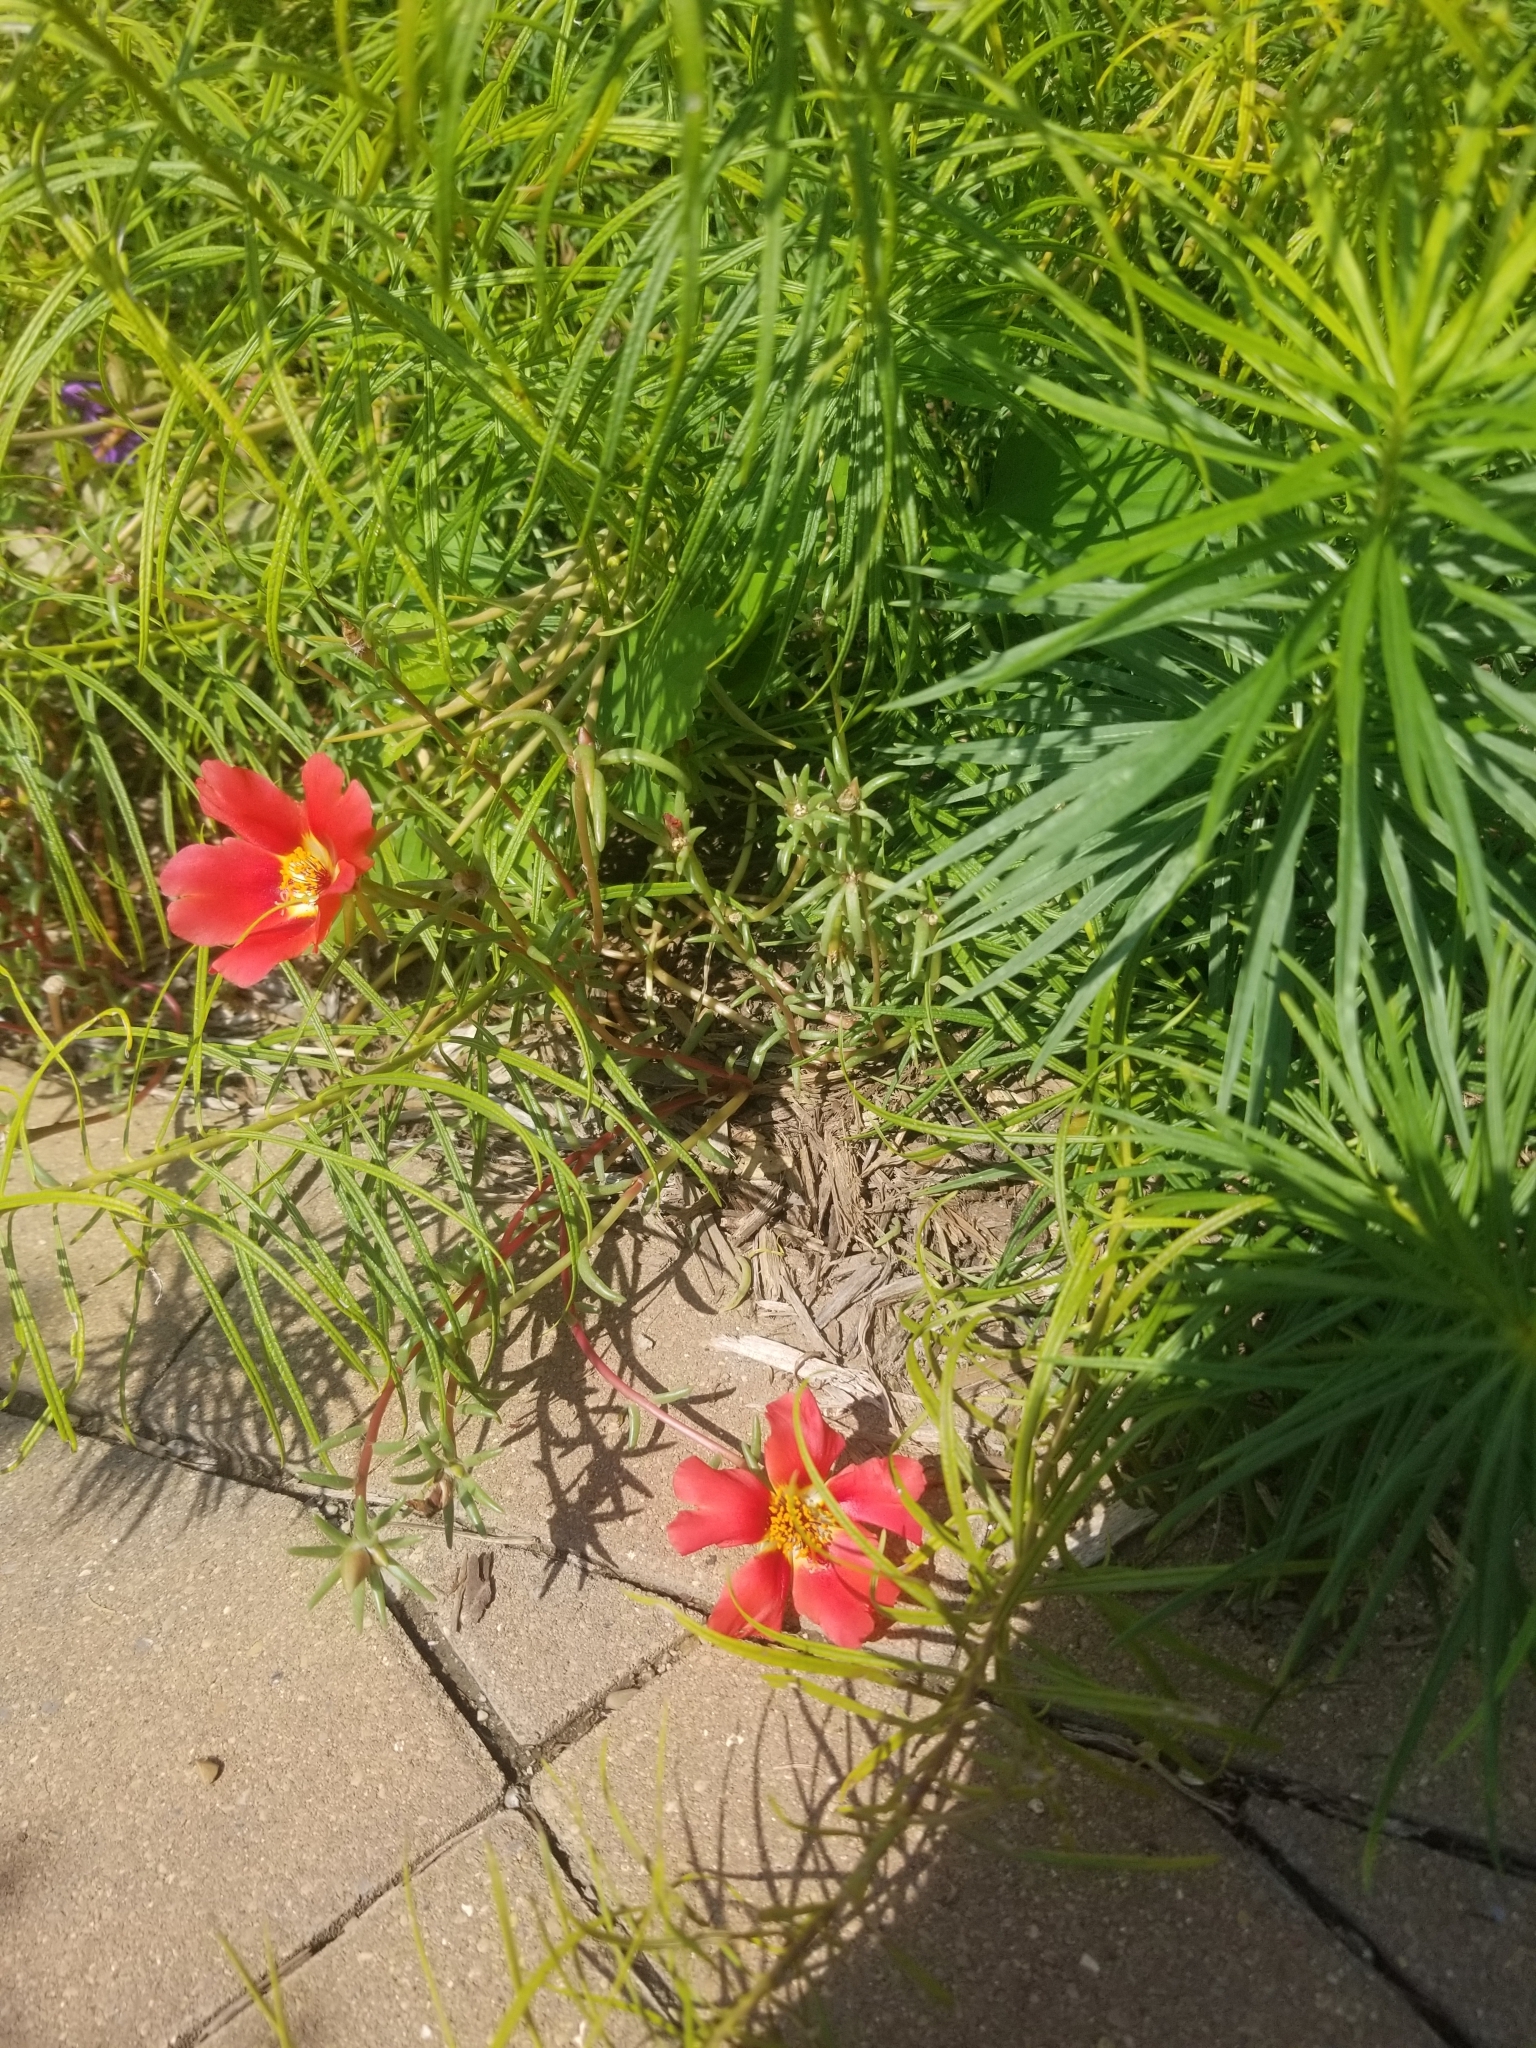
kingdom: Plantae
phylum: Tracheophyta
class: Magnoliopsida
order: Caryophyllales
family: Portulacaceae
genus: Portulaca
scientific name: Portulaca grandiflora
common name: Moss-rose
